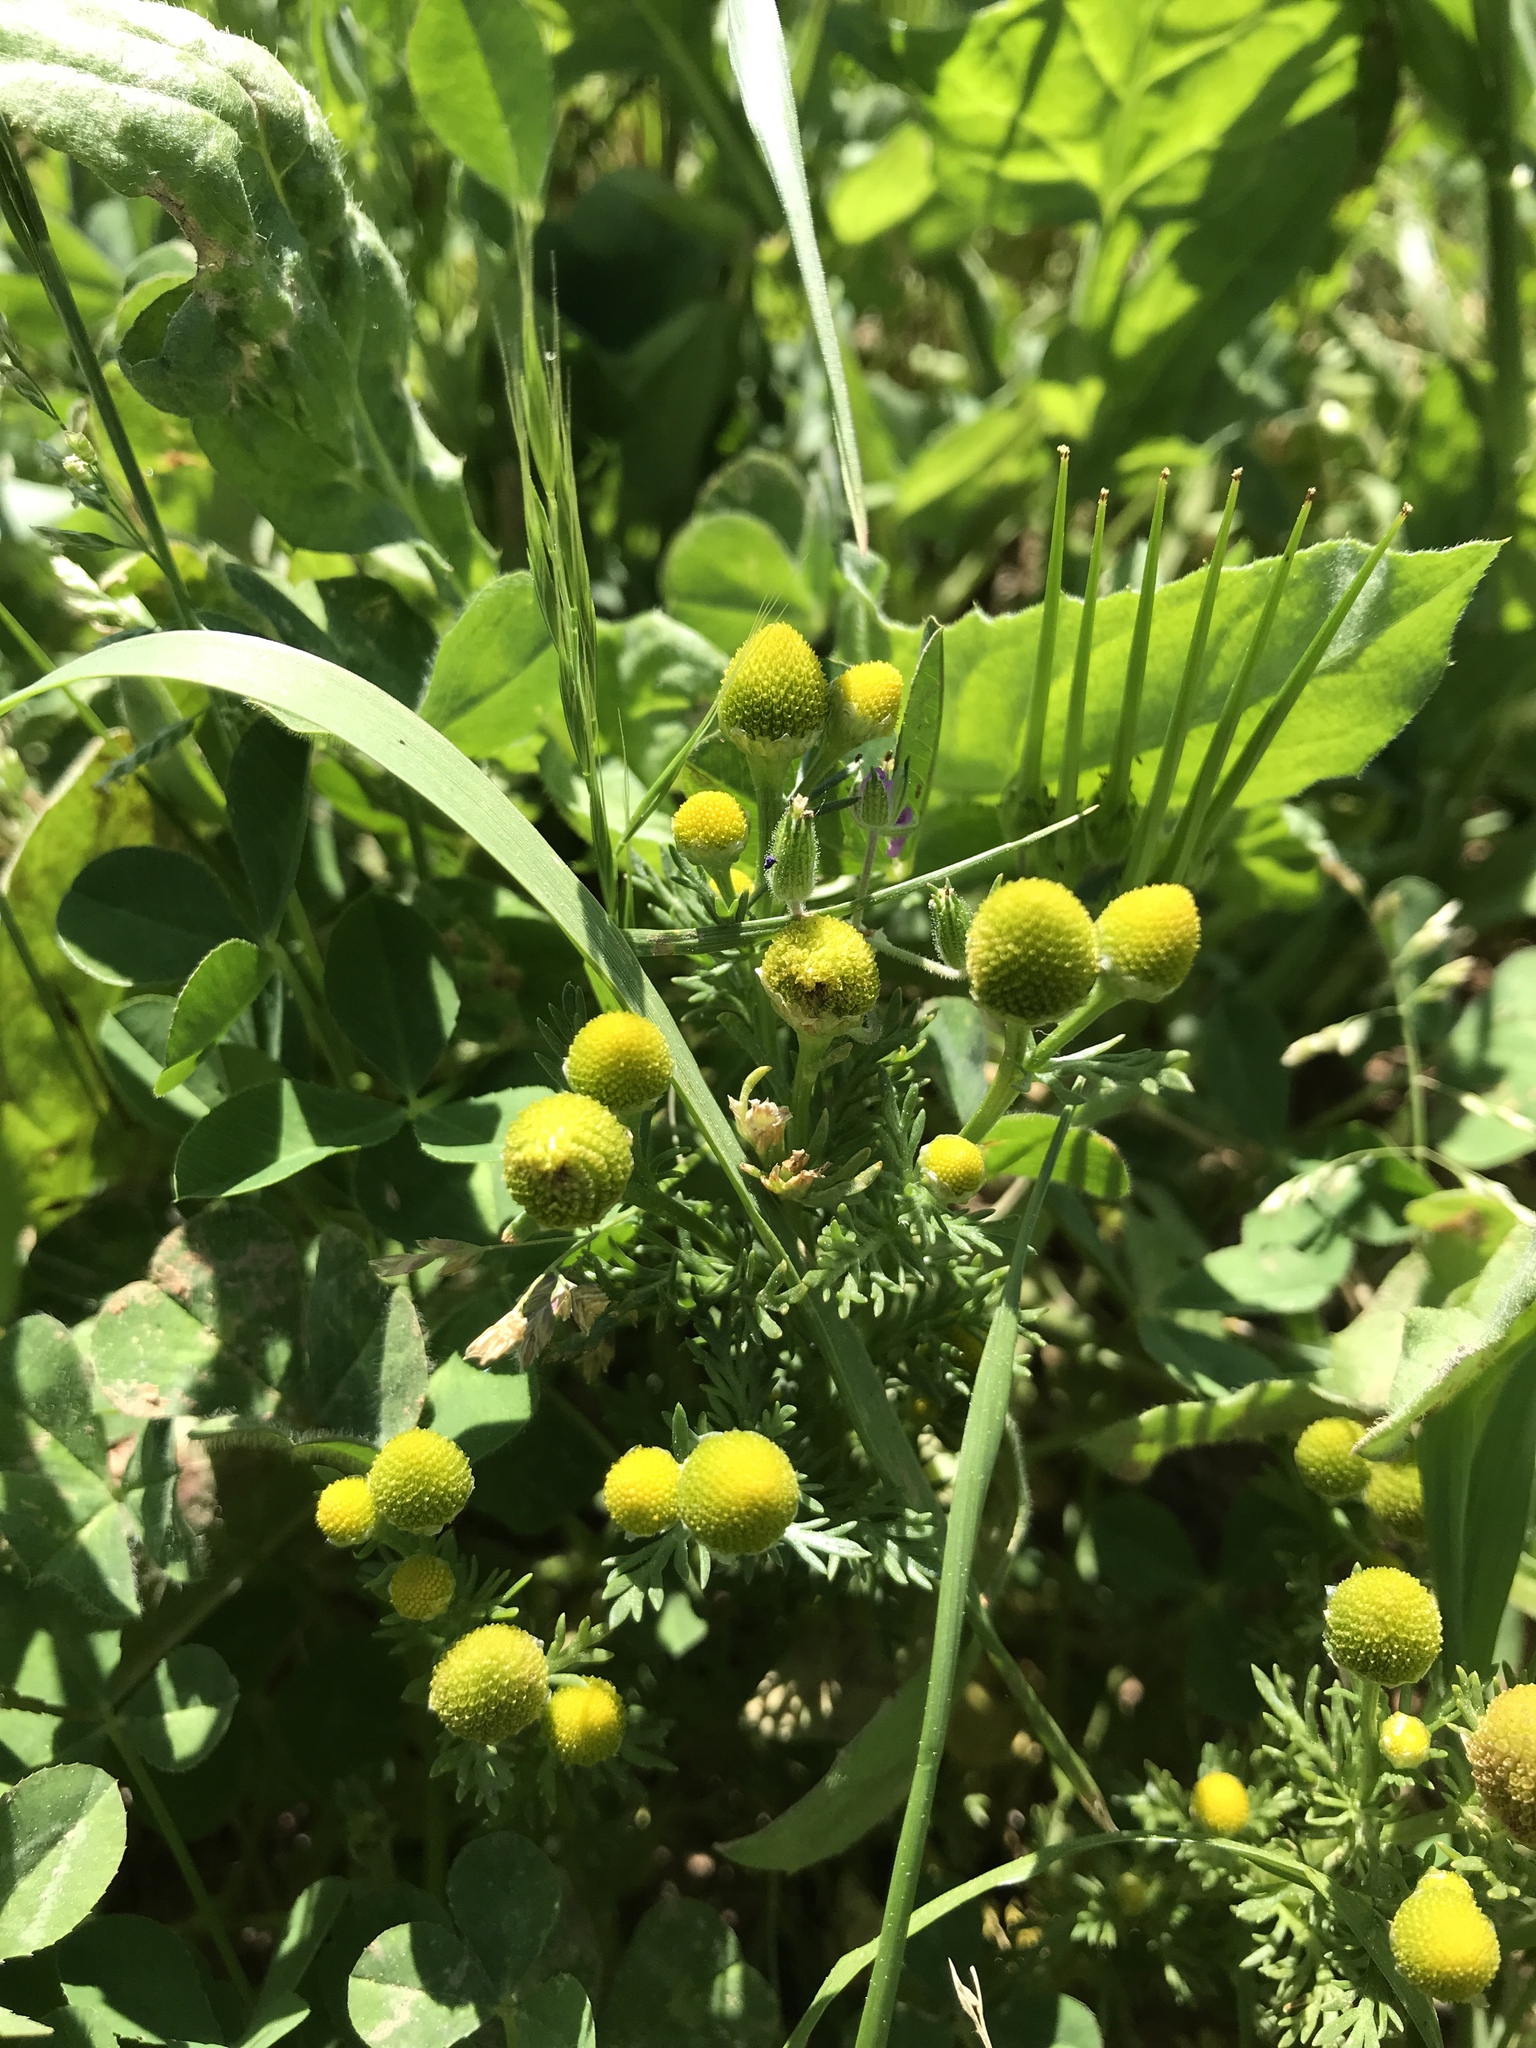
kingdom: Plantae
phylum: Tracheophyta
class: Magnoliopsida
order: Asterales
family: Asteraceae
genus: Matricaria
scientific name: Matricaria discoidea
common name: Disc mayweed
